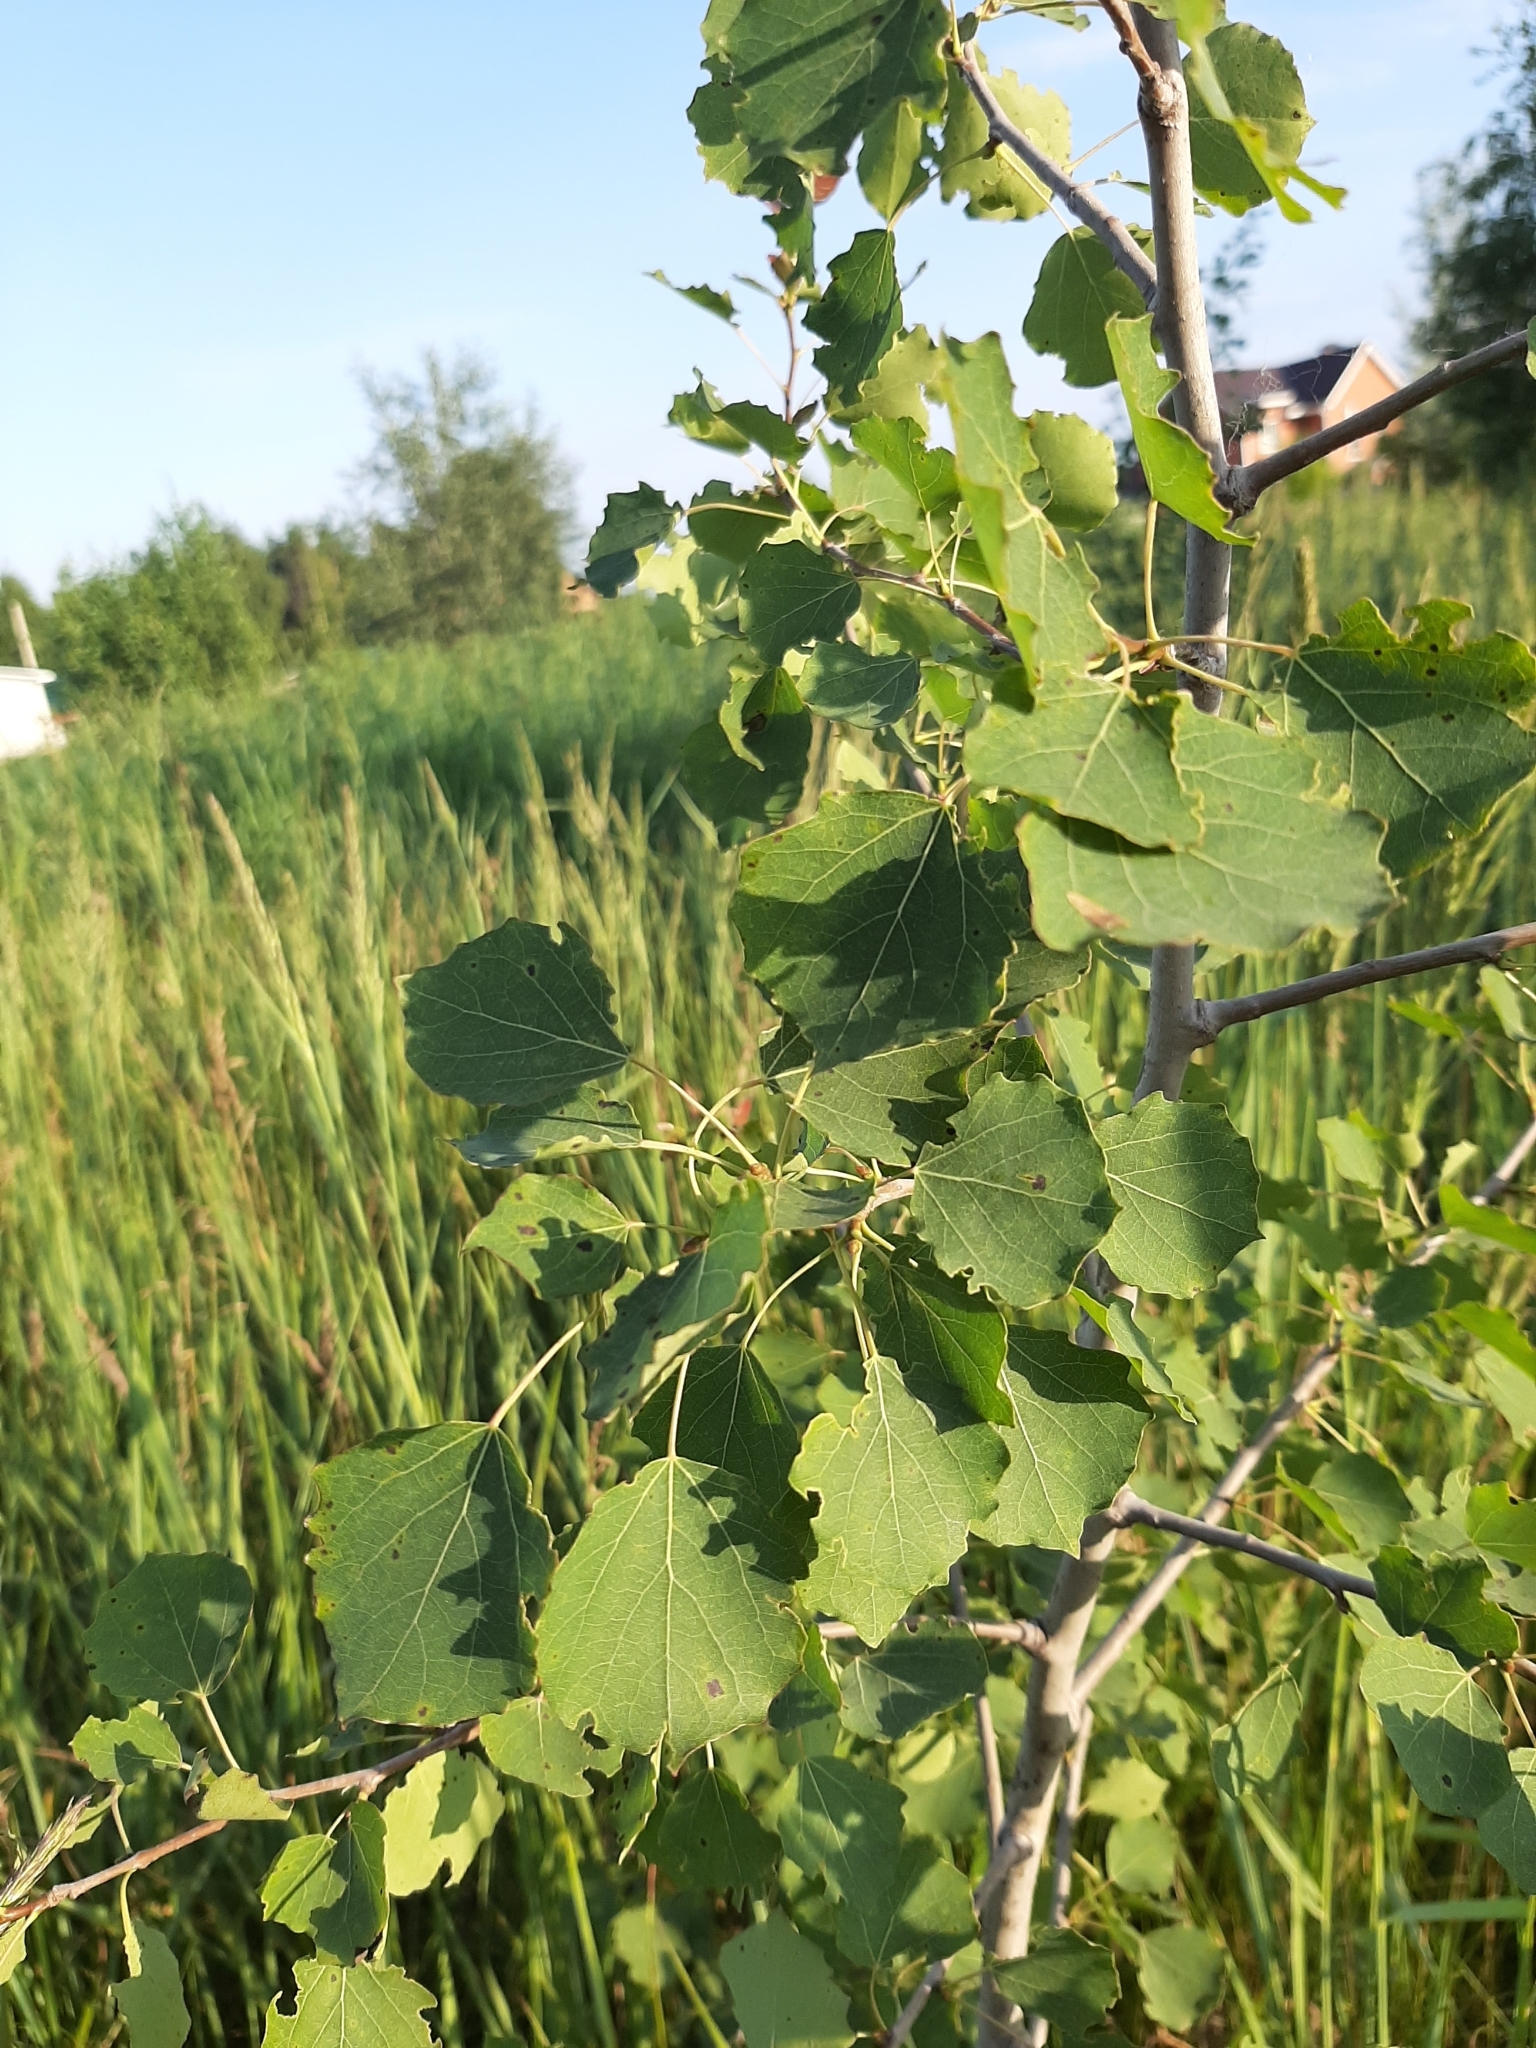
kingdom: Plantae
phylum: Tracheophyta
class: Magnoliopsida
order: Malpighiales
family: Salicaceae
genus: Populus
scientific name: Populus tremula
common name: European aspen
